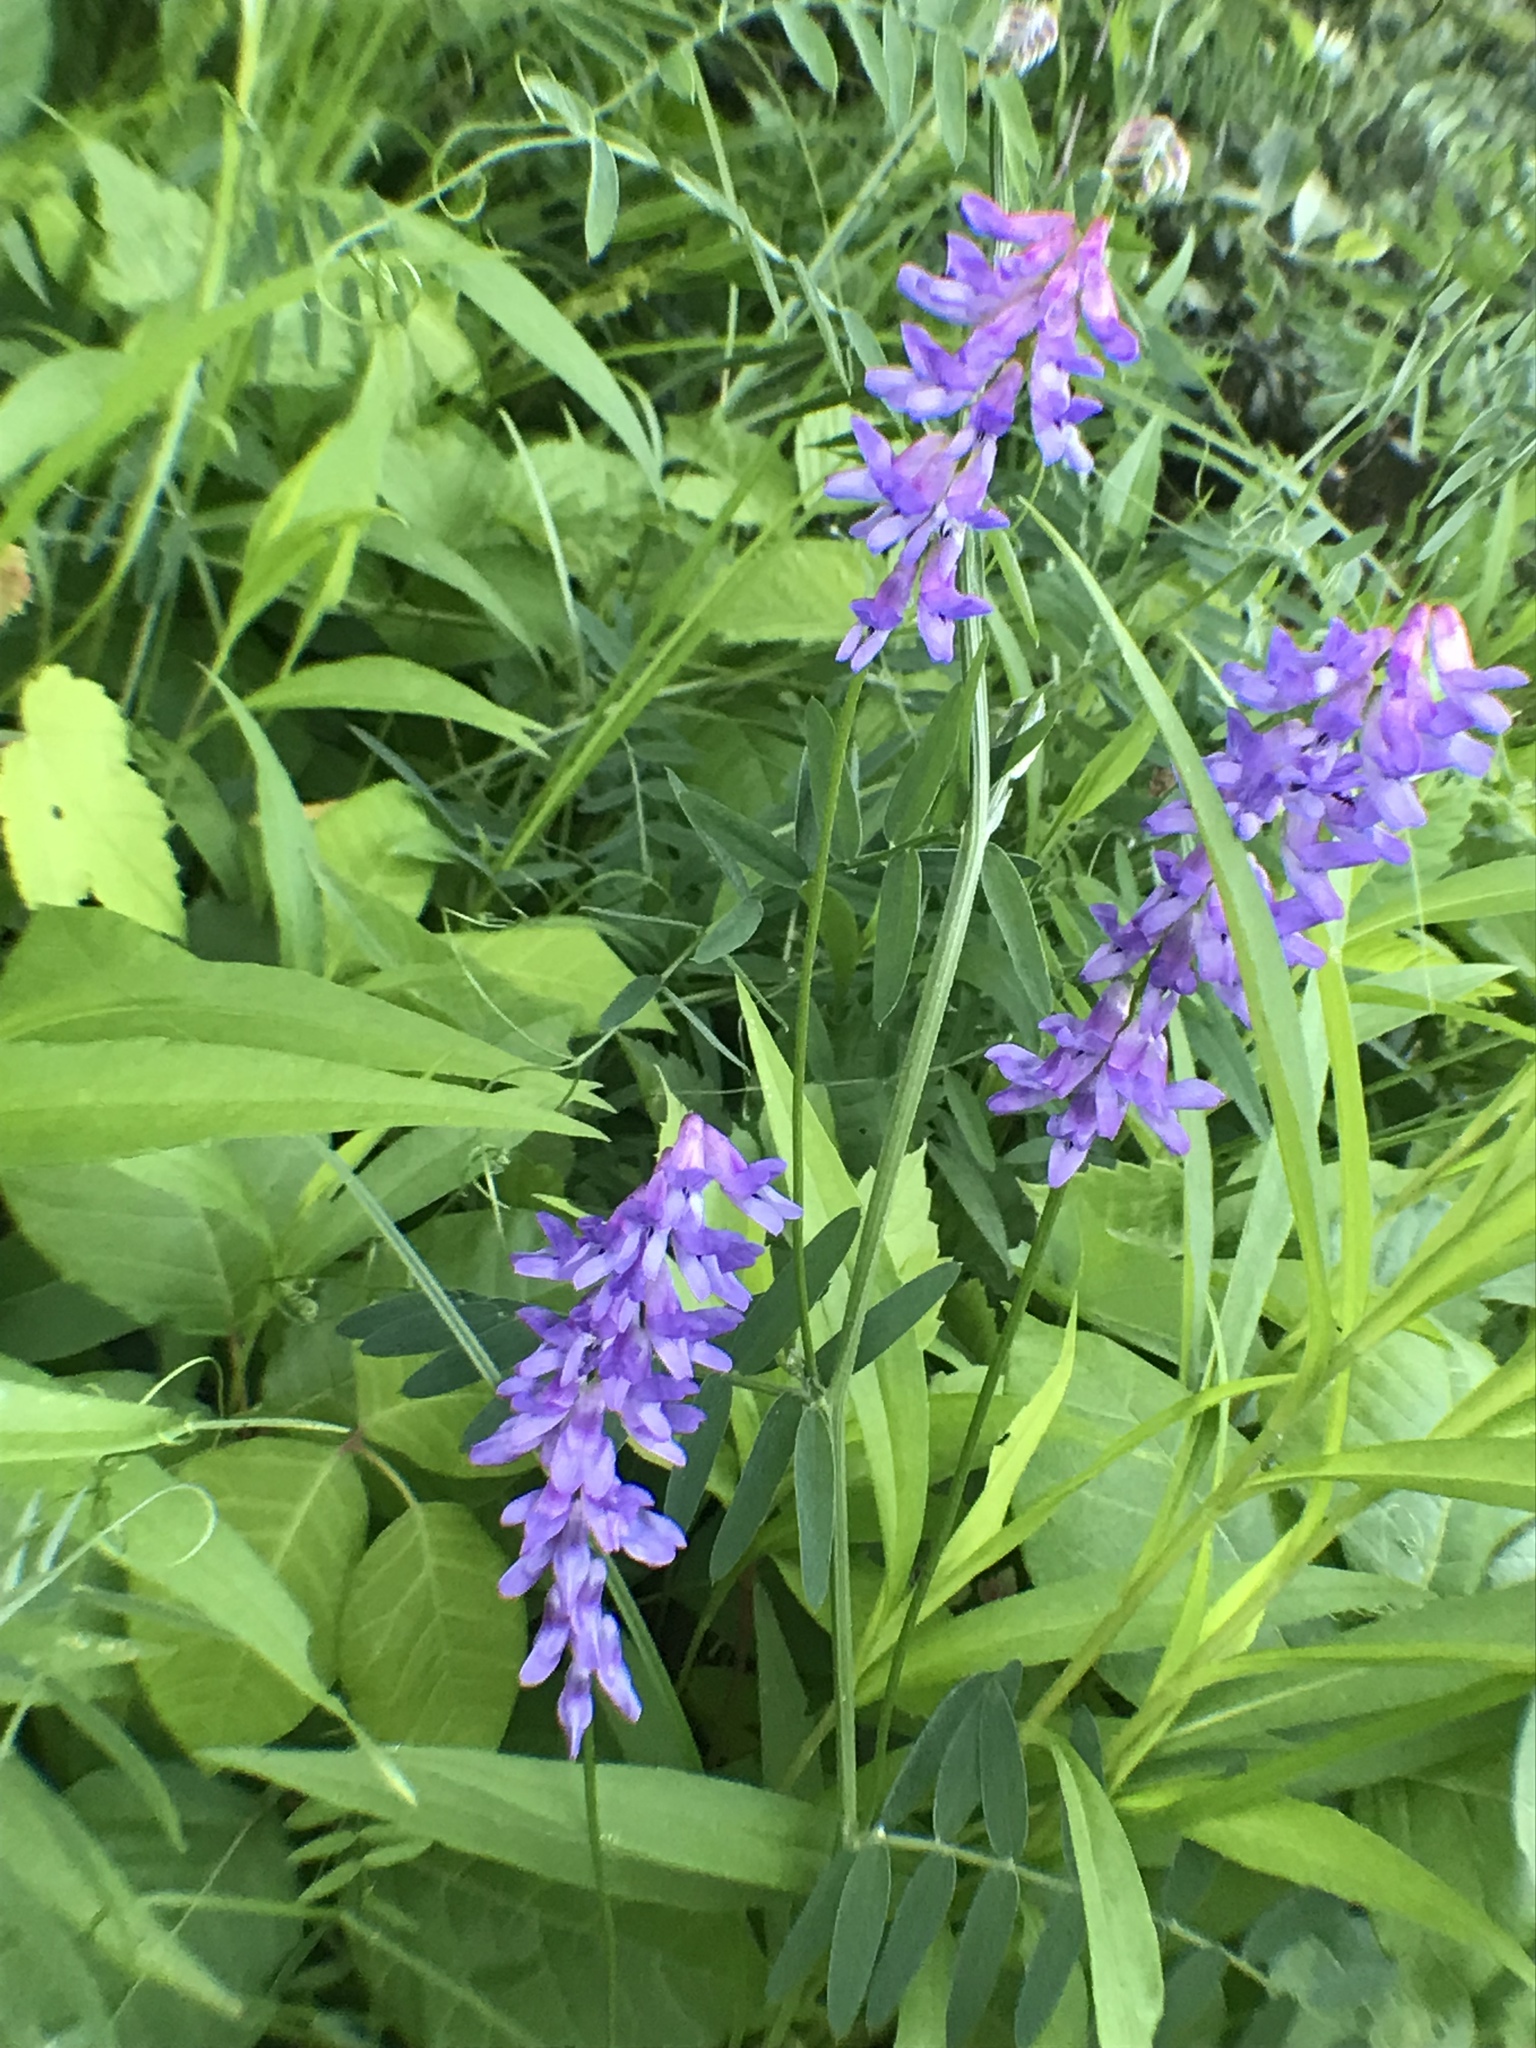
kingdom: Plantae
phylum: Tracheophyta
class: Magnoliopsida
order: Fabales
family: Fabaceae
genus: Vicia
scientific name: Vicia cracca
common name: Bird vetch
